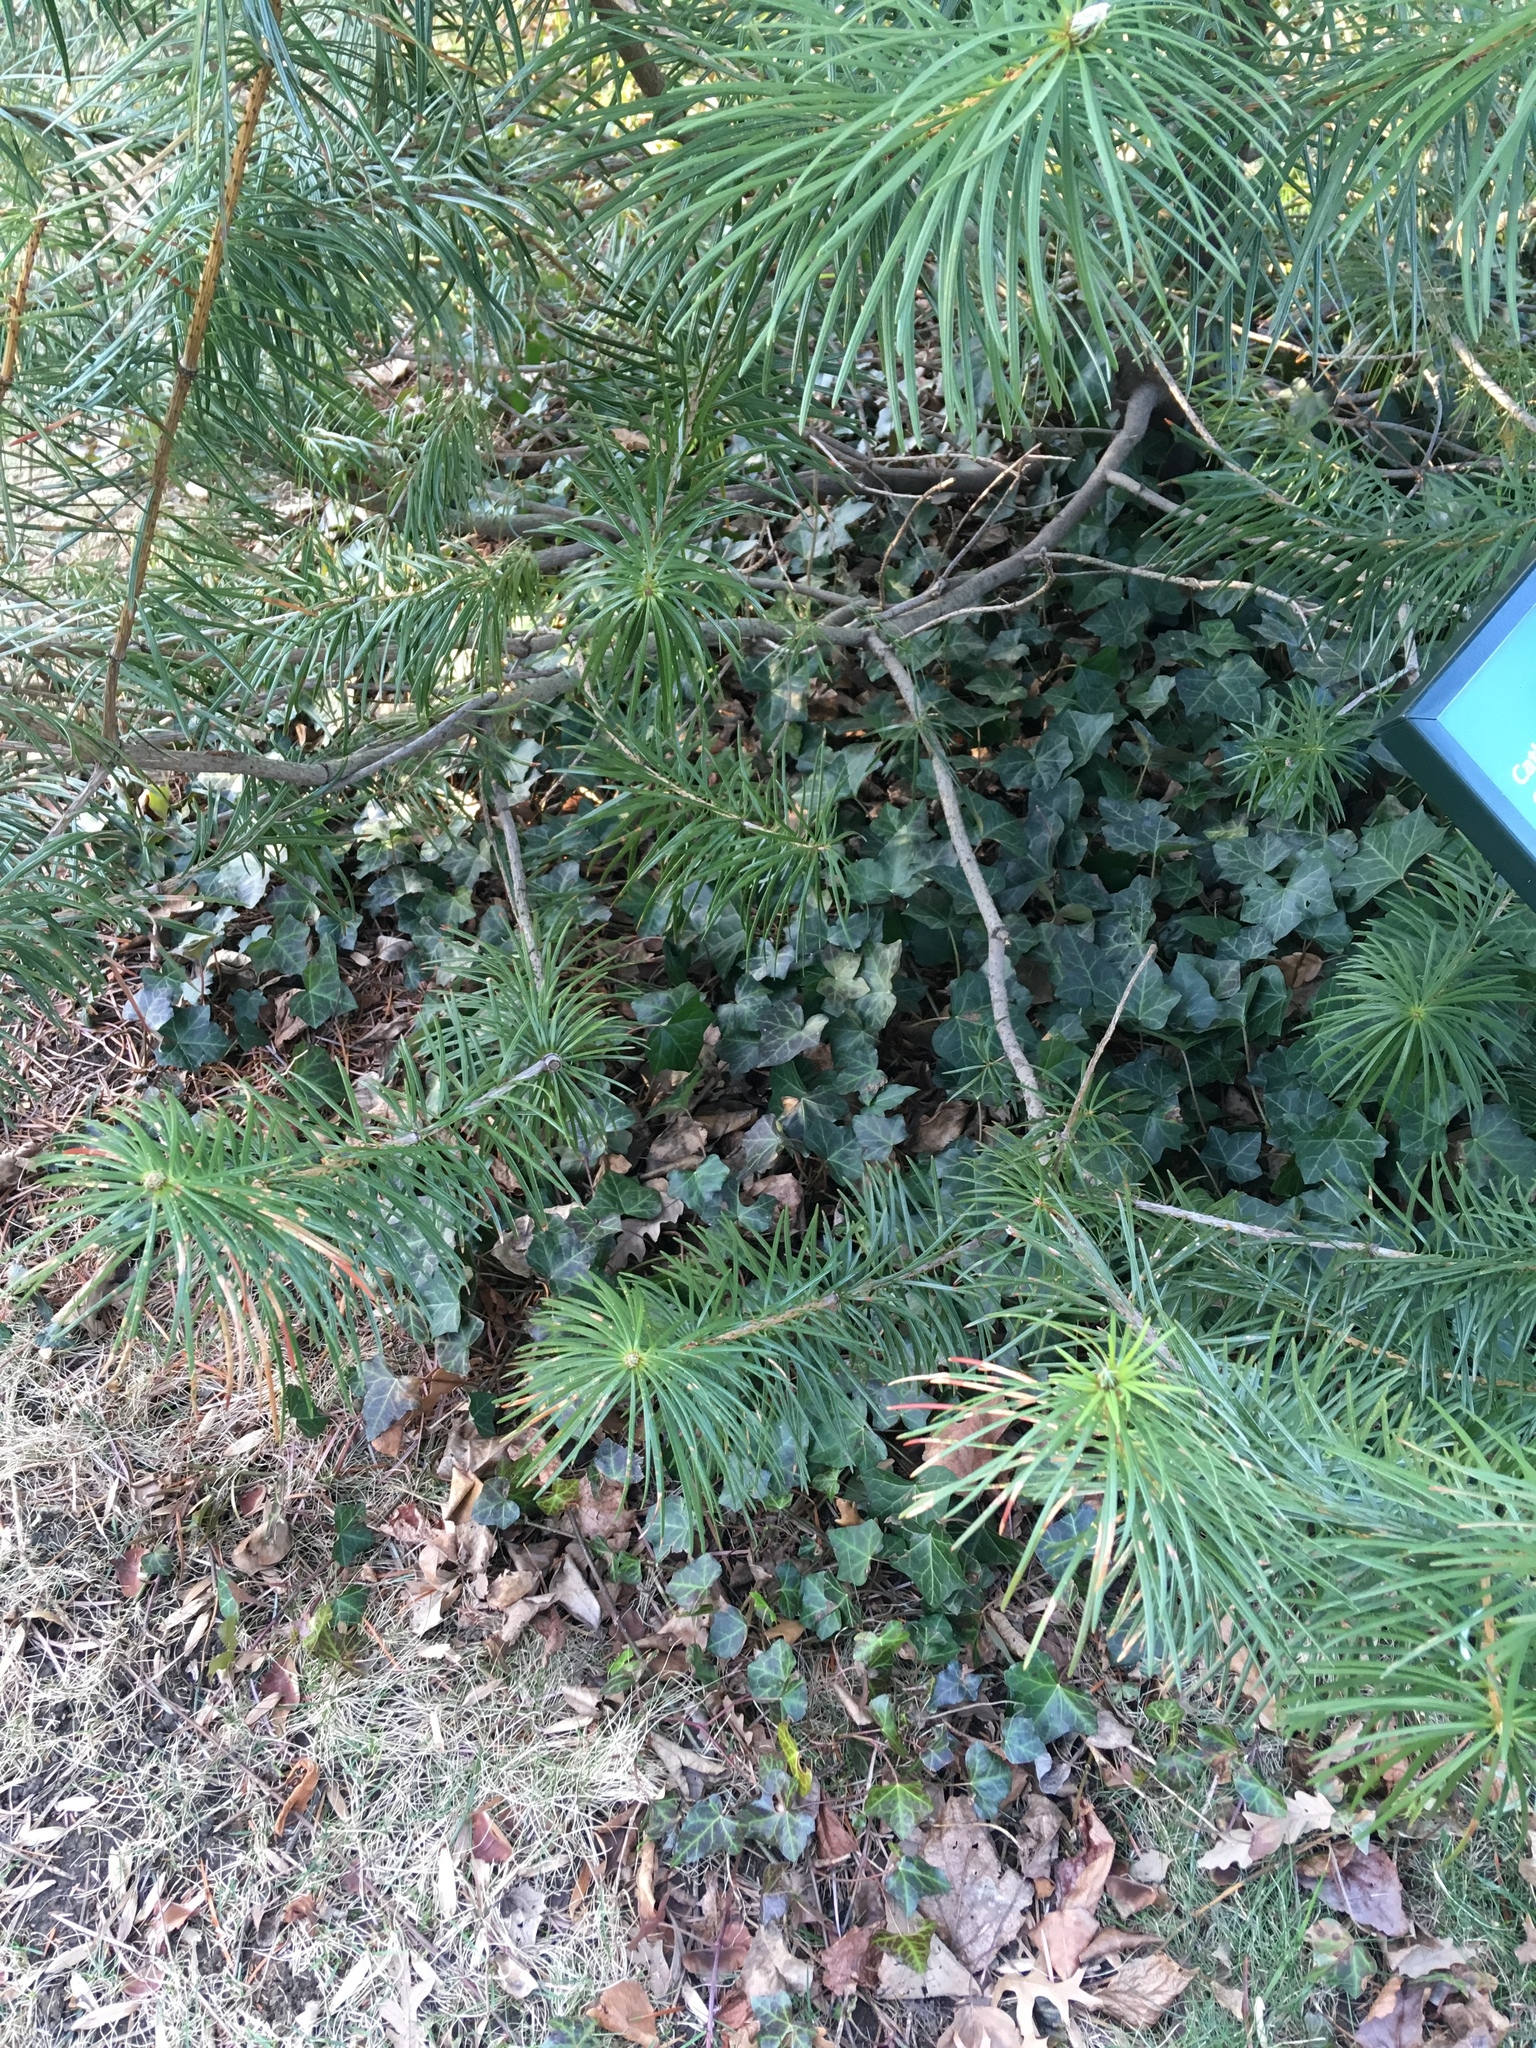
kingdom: Plantae
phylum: Tracheophyta
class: Magnoliopsida
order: Apiales
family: Araliaceae
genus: Hedera
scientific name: Hedera helix
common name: Ivy
